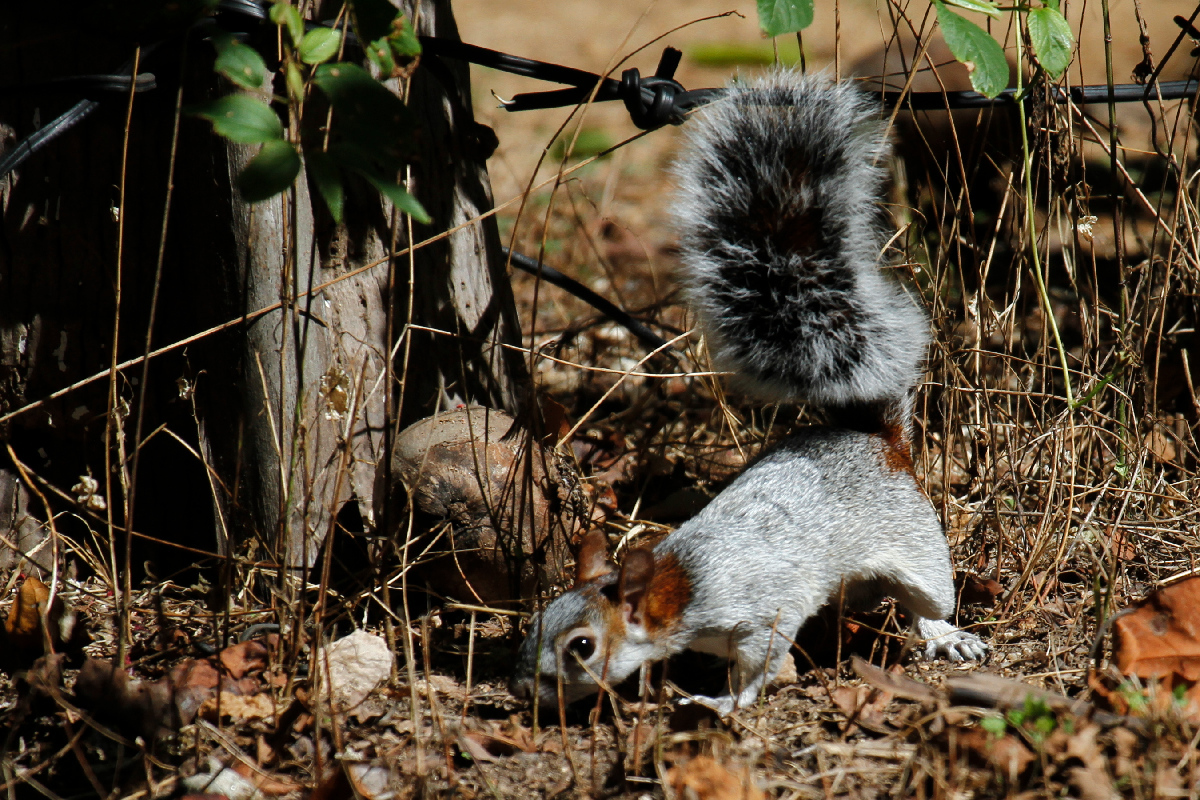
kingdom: Animalia
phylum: Chordata
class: Mammalia
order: Rodentia
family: Sciuridae
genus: Sciurus
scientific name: Sciurus aureogaster
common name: Red-bellied squirrel
